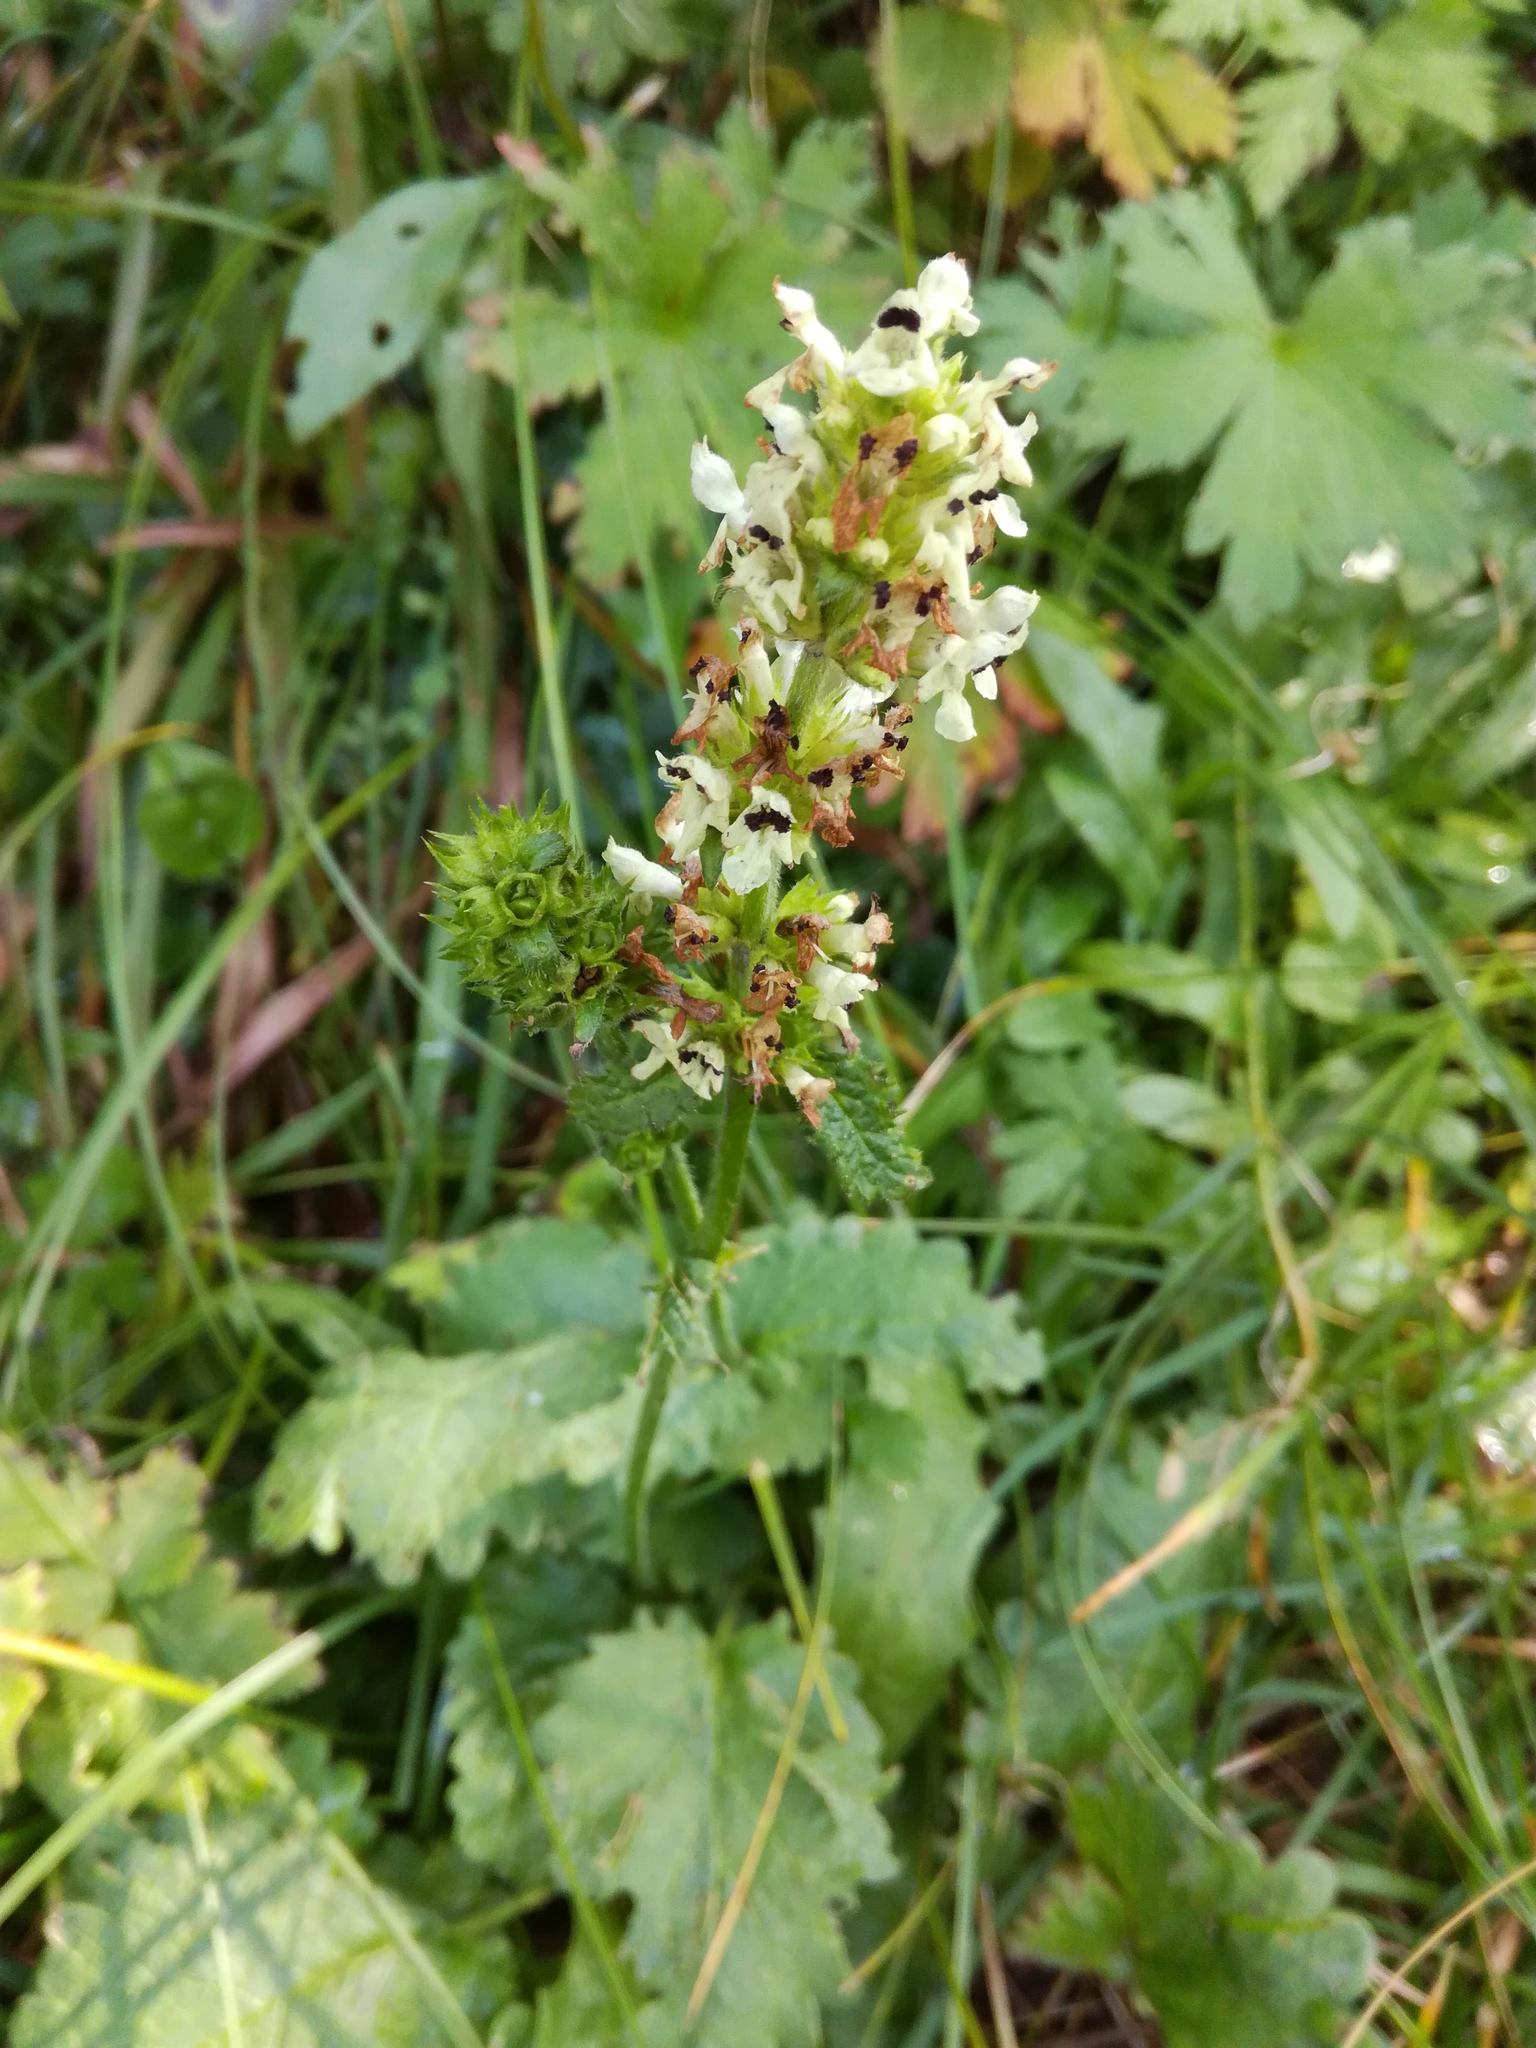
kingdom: Plantae
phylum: Tracheophyta
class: Magnoliopsida
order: Lamiales
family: Lamiaceae
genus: Betonica
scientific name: Betonica alopecuros
